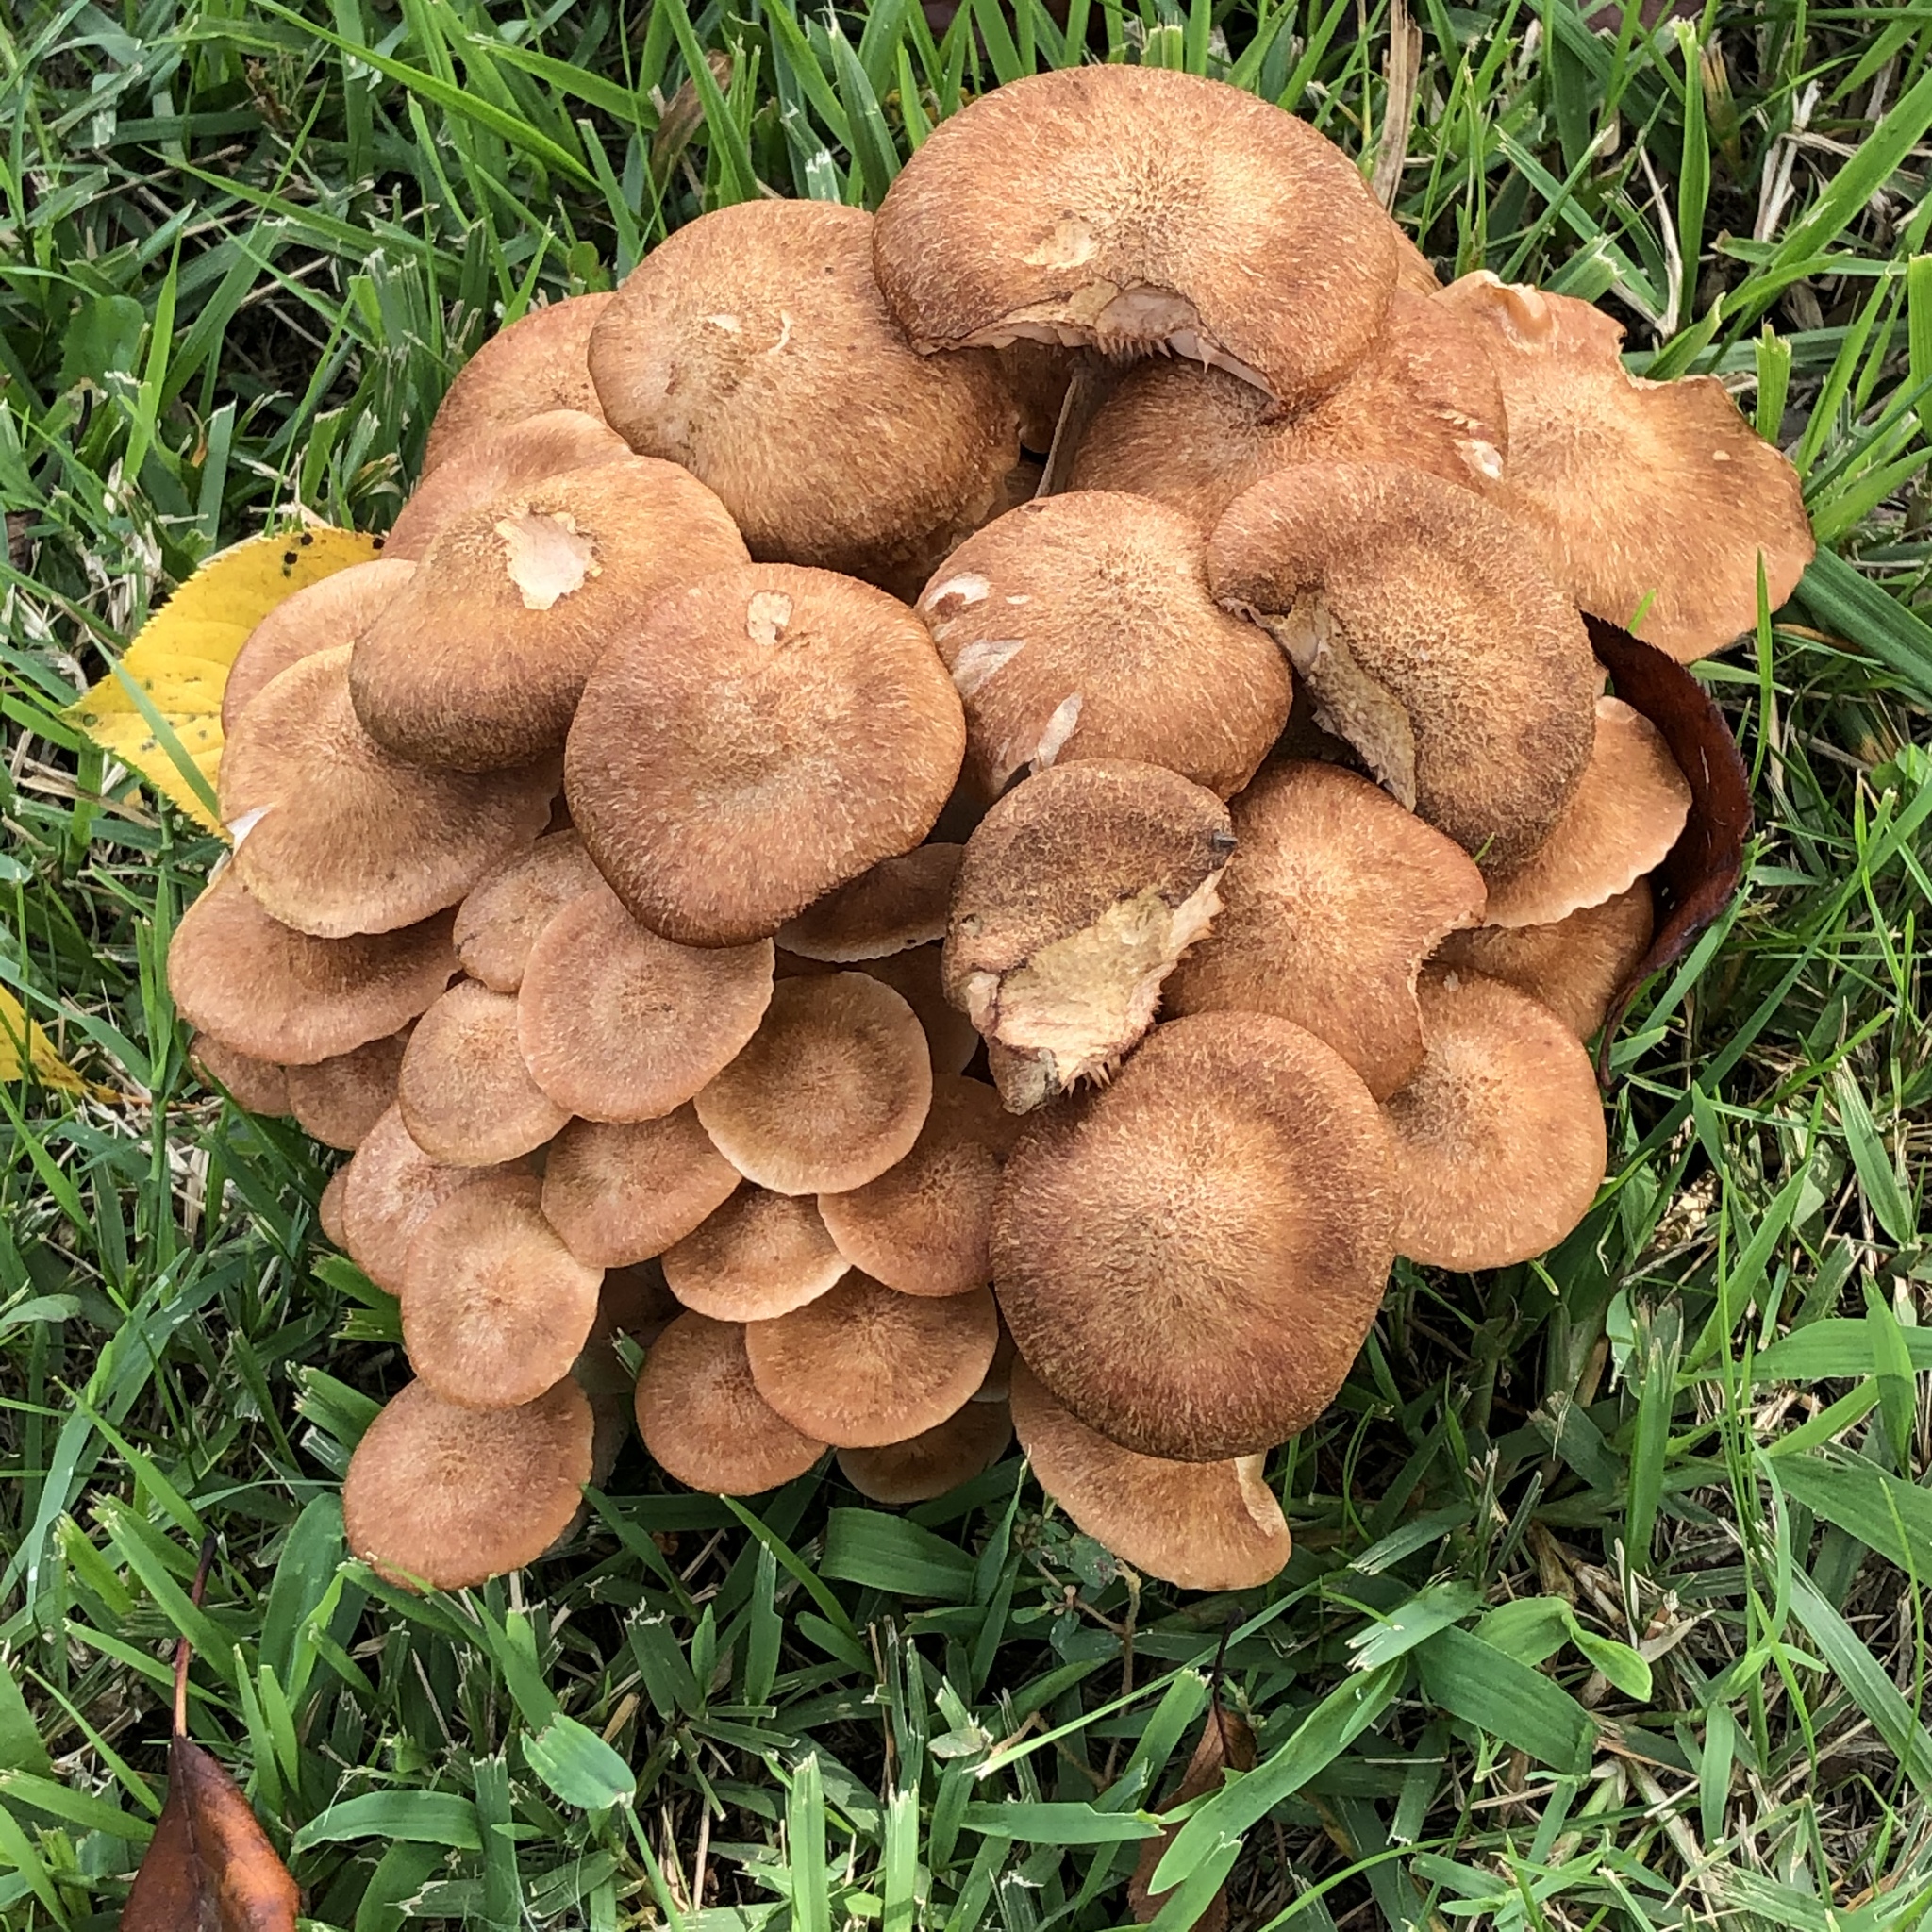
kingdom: Fungi
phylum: Basidiomycota
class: Agaricomycetes
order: Agaricales
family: Physalacriaceae
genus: Desarmillaria
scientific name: Desarmillaria caespitosa
